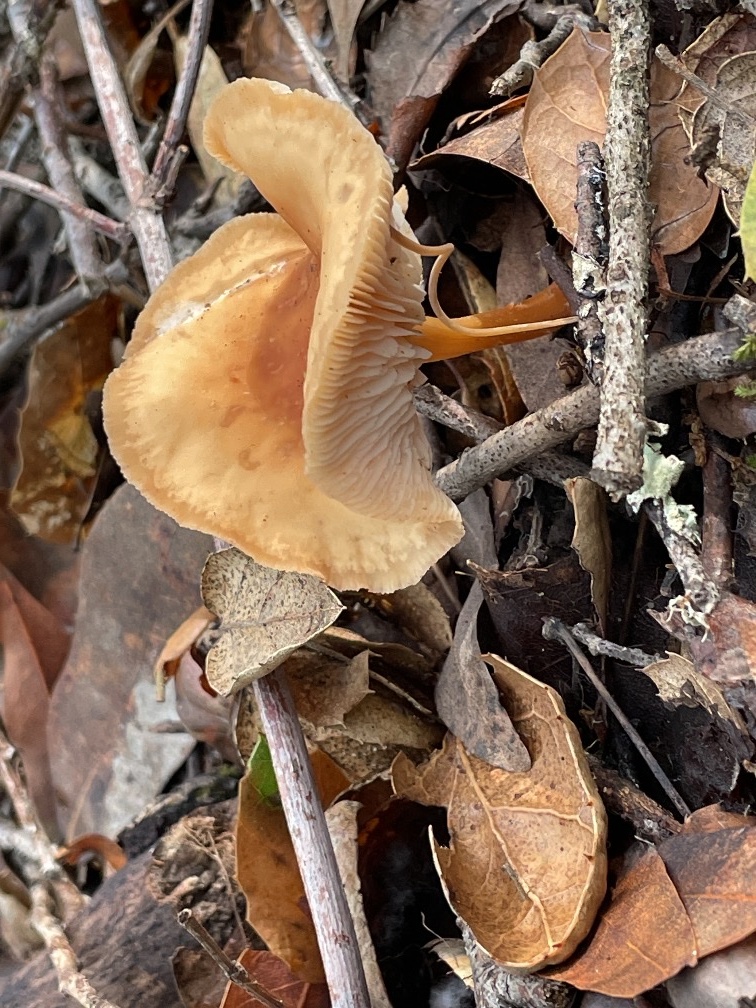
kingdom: Fungi
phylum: Basidiomycota
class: Agaricomycetes
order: Agaricales
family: Omphalotaceae
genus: Gymnopus
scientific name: Gymnopus dryophilus
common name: Penny top
